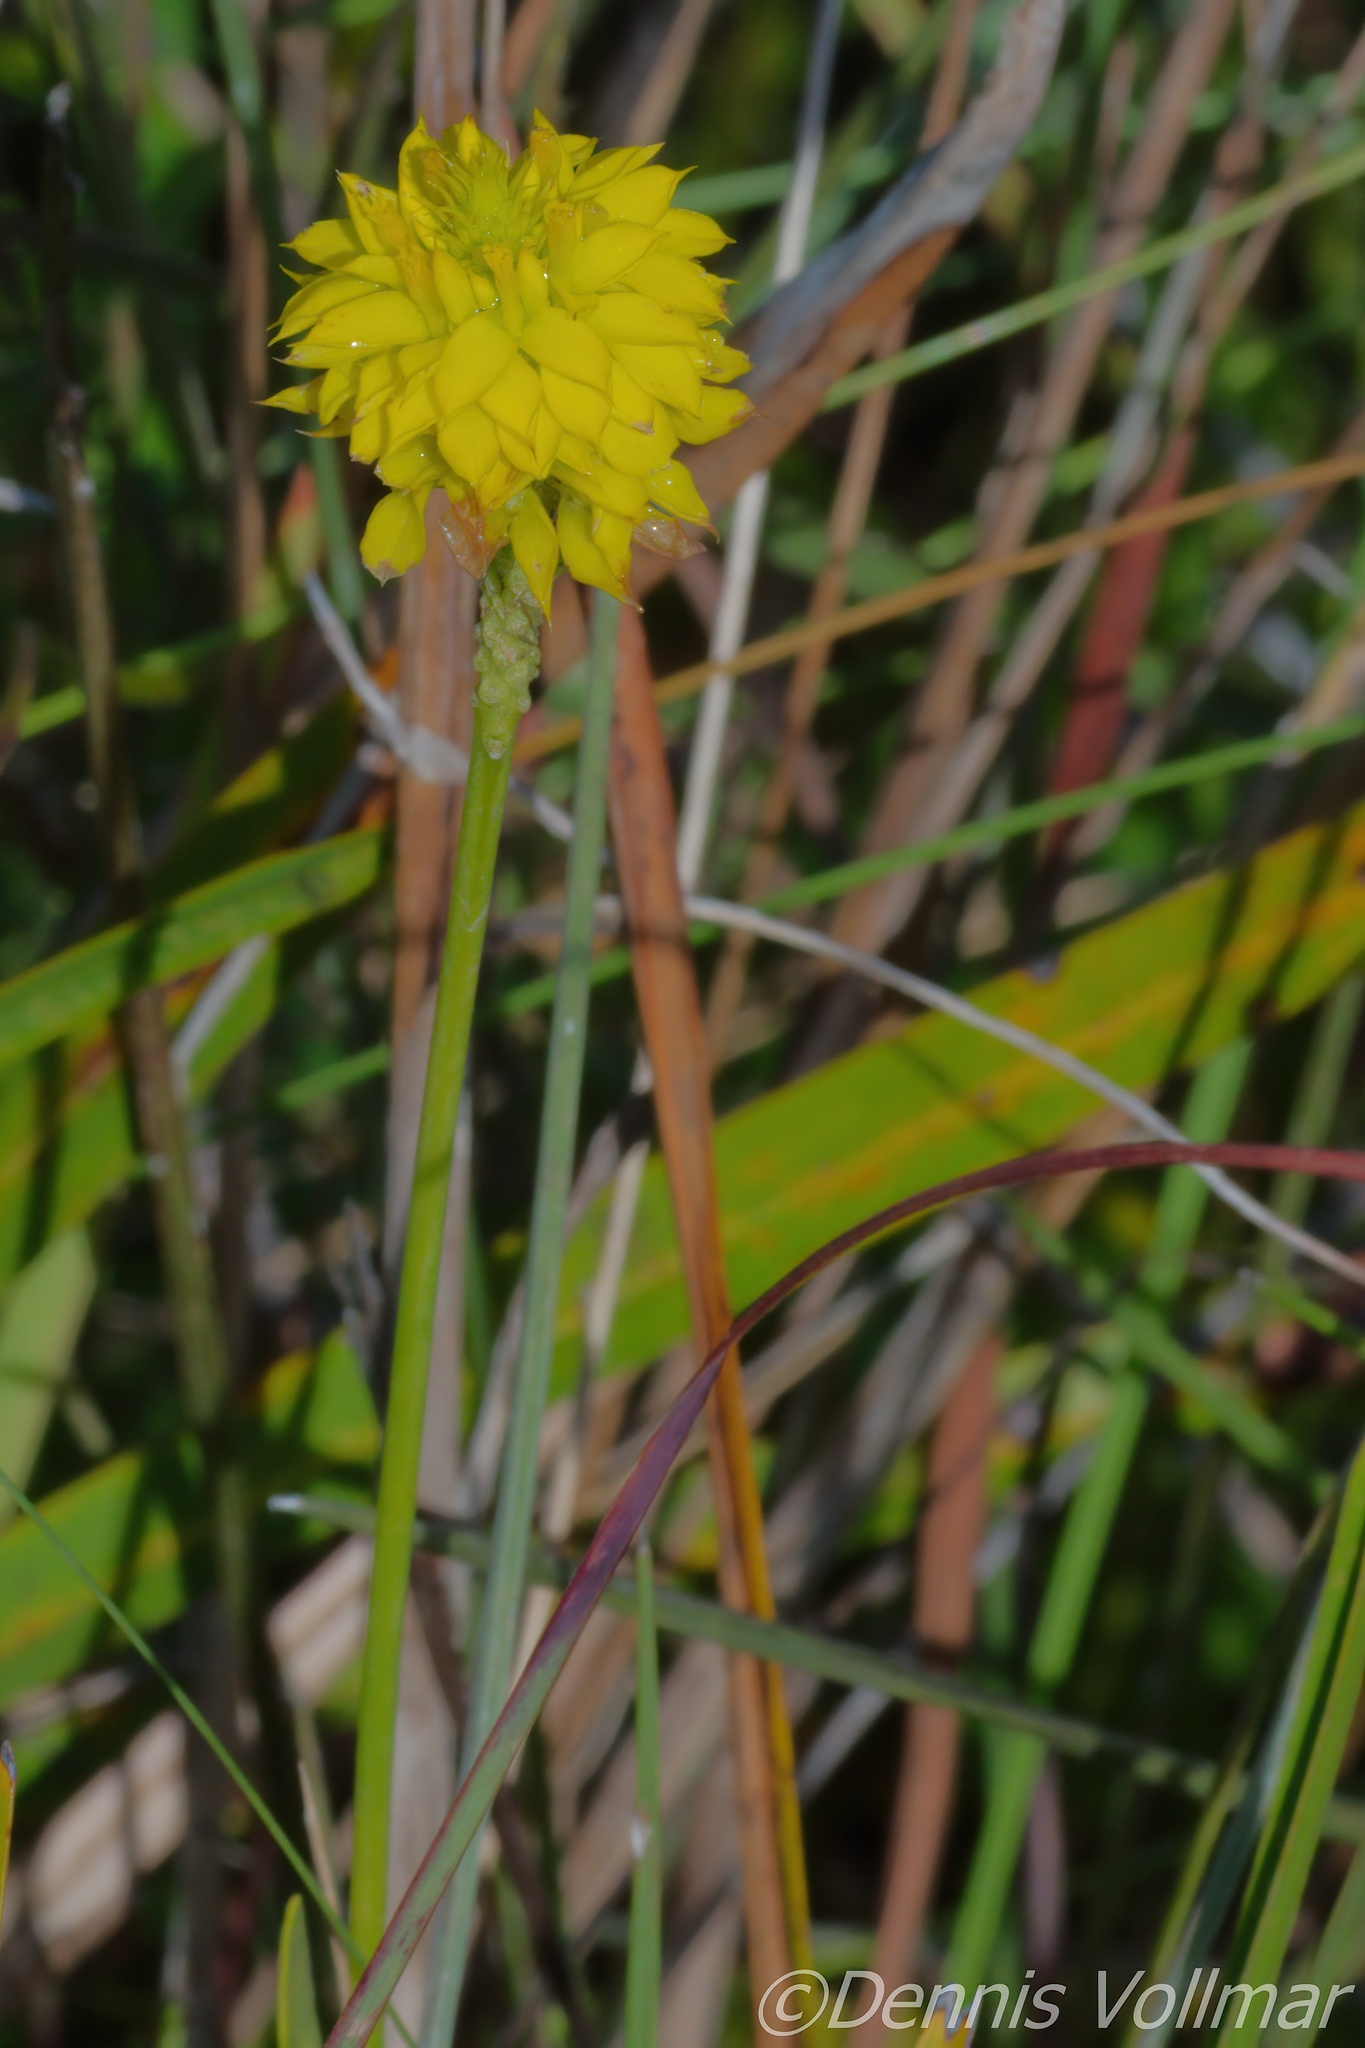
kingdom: Plantae
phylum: Tracheophyta
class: Magnoliopsida
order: Fabales
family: Polygalaceae
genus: Polygala
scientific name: Polygala rugelii
